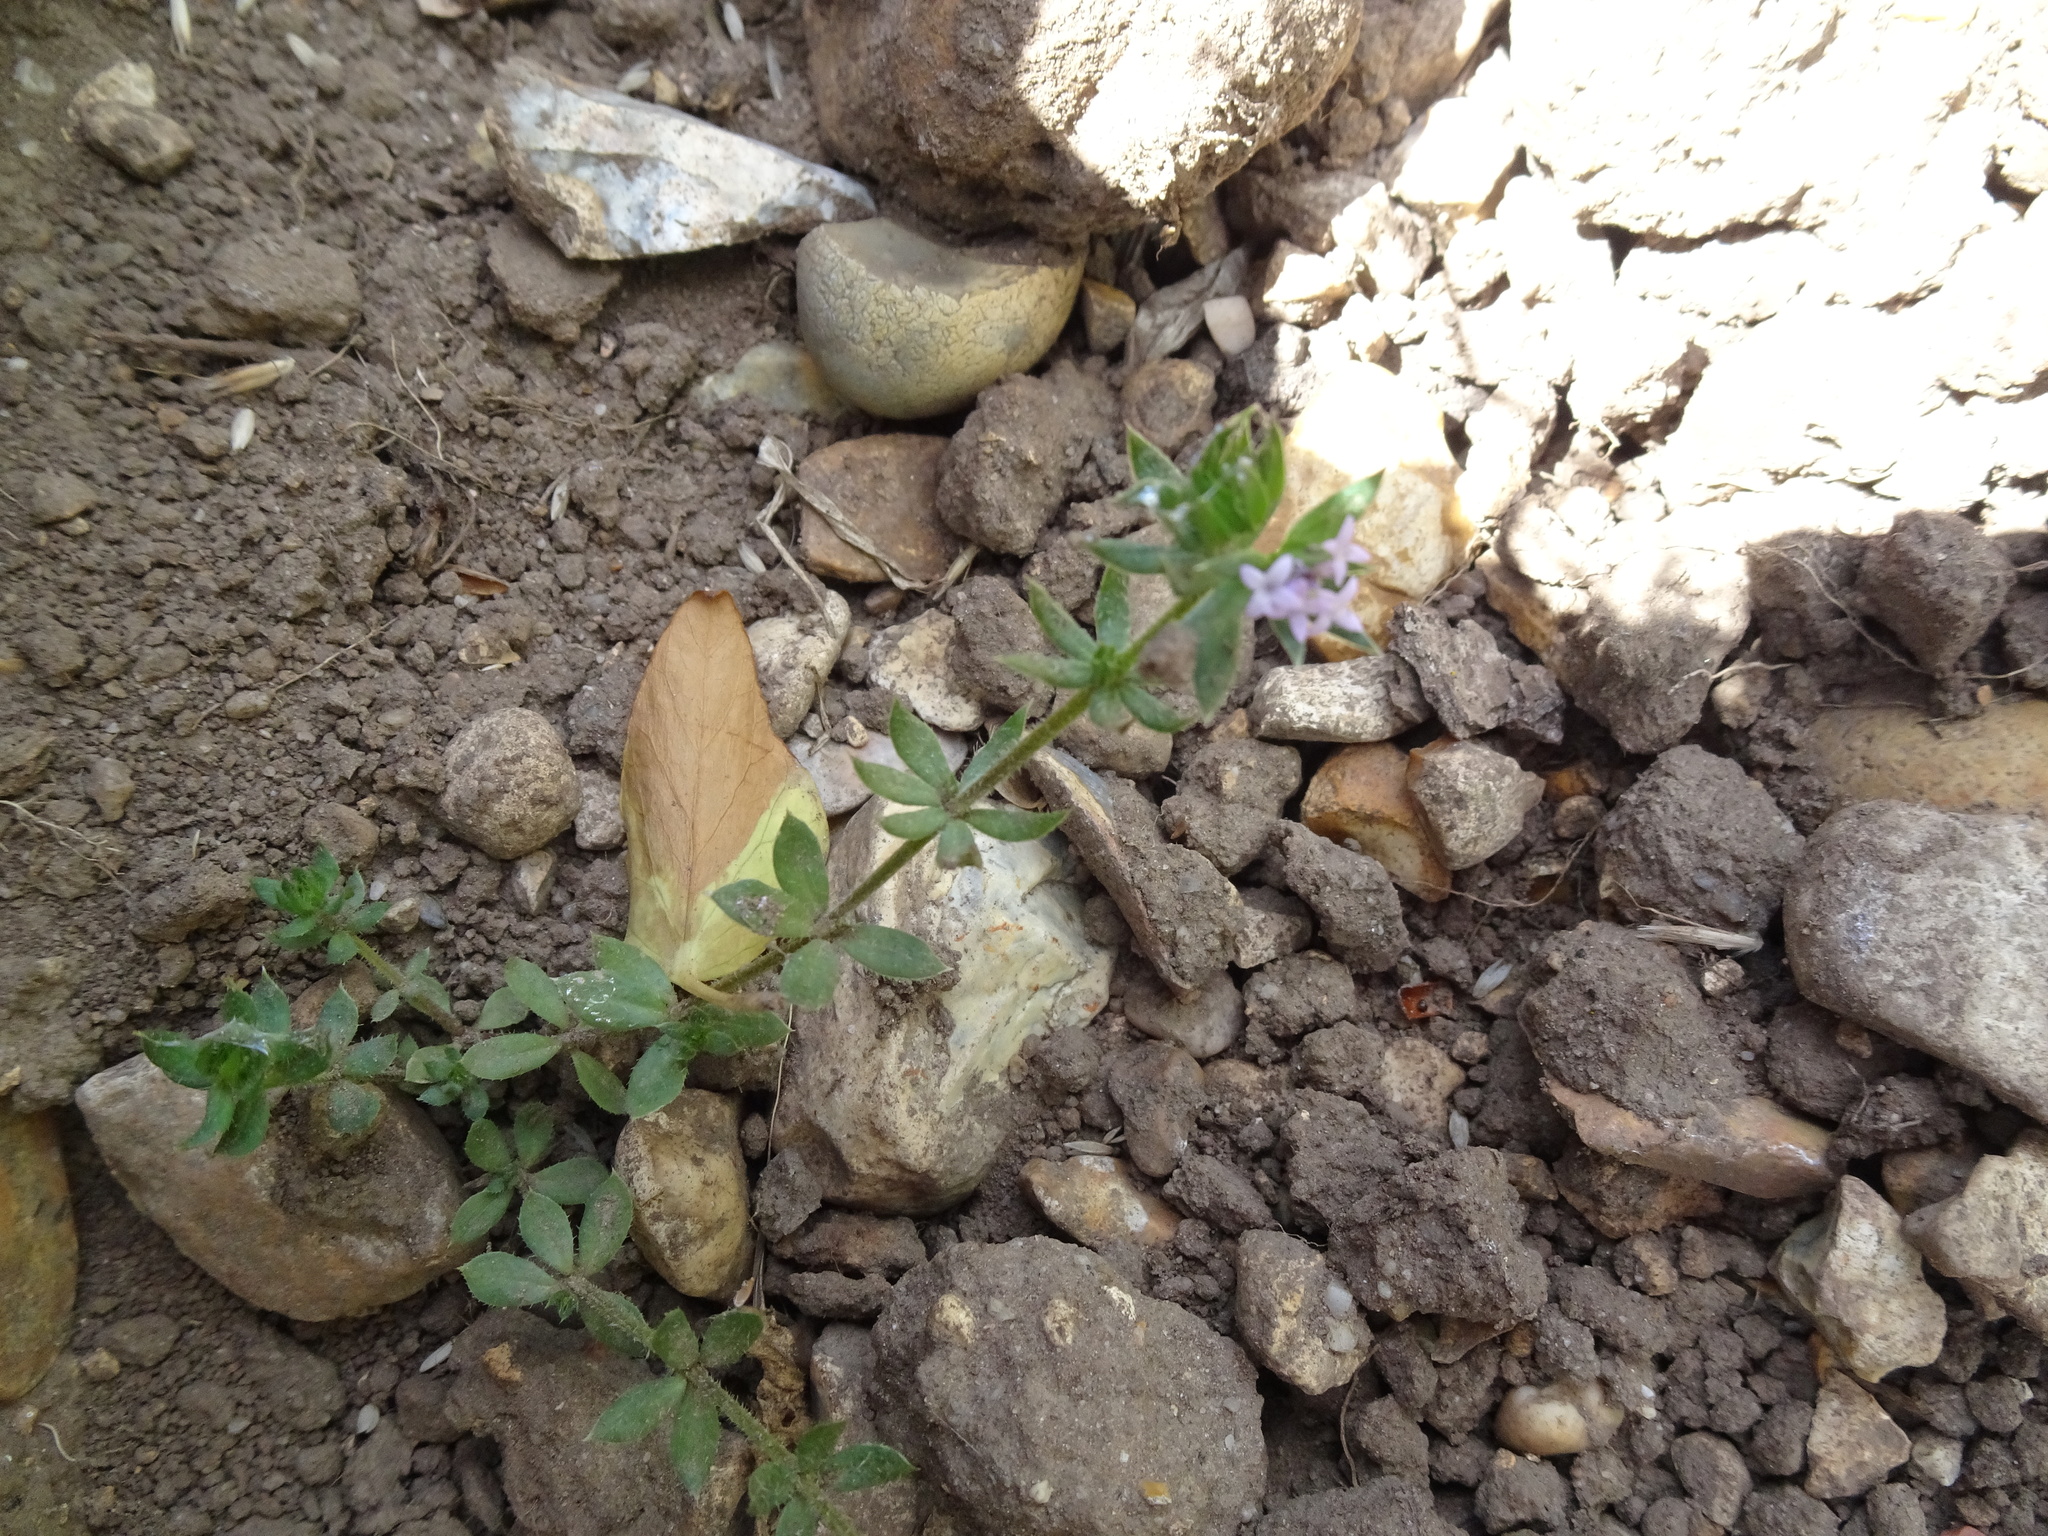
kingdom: Plantae
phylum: Tracheophyta
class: Magnoliopsida
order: Gentianales
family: Rubiaceae
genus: Sherardia
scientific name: Sherardia arvensis
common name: Field madder
